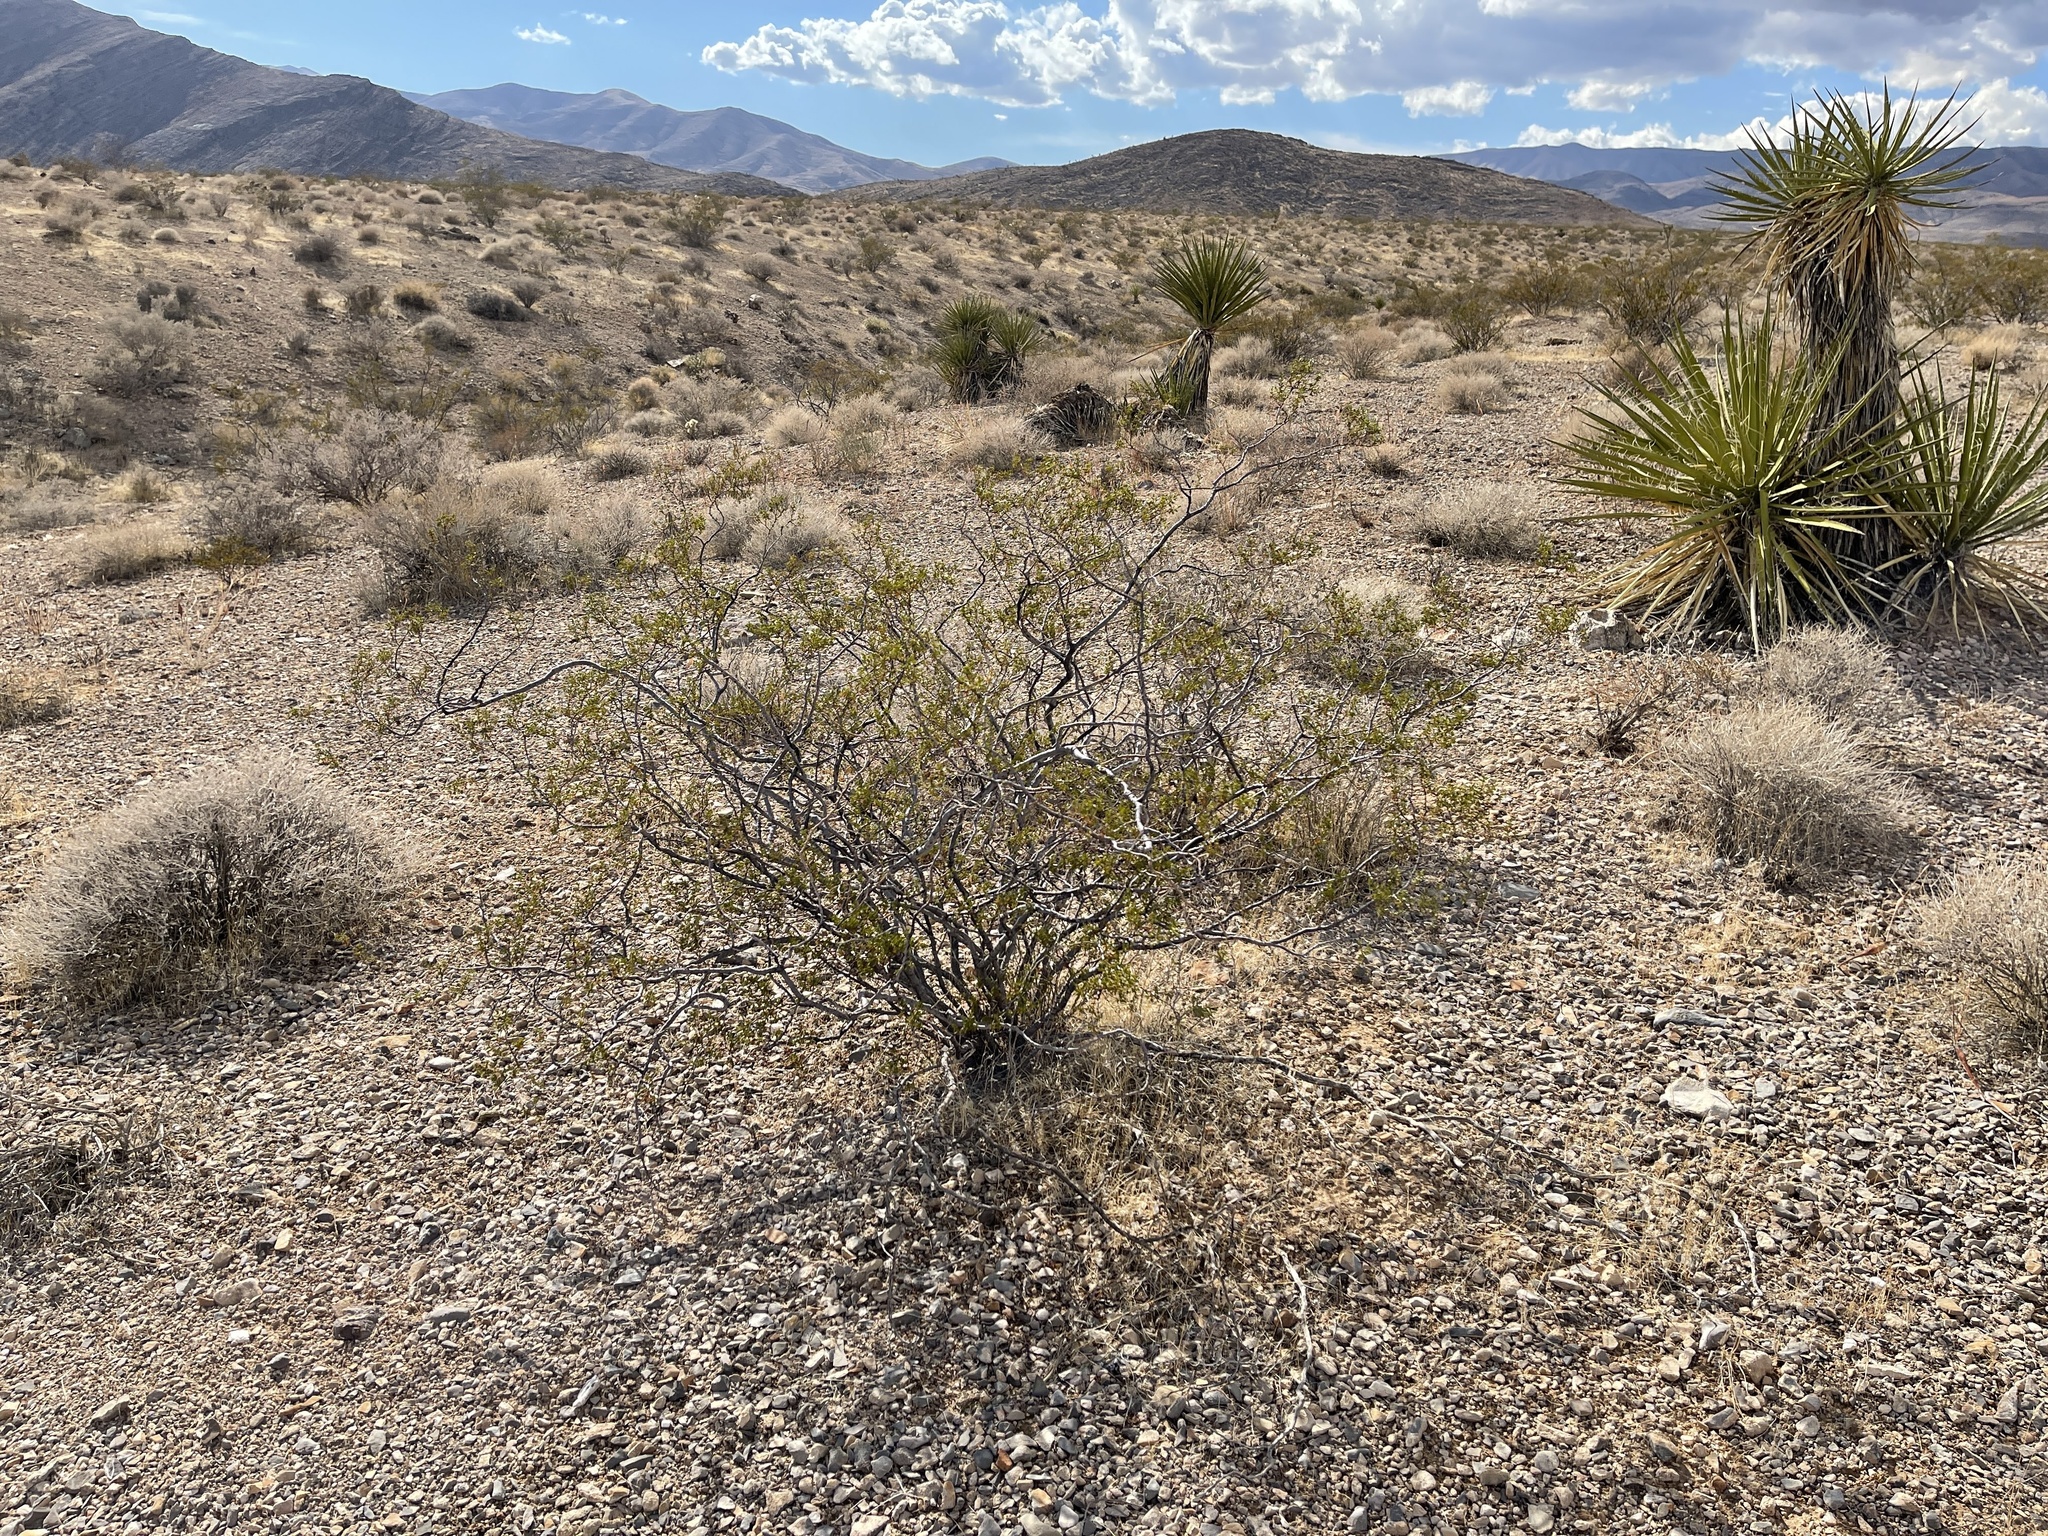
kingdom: Plantae
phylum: Tracheophyta
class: Magnoliopsida
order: Zygophyllales
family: Zygophyllaceae
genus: Larrea
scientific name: Larrea tridentata
